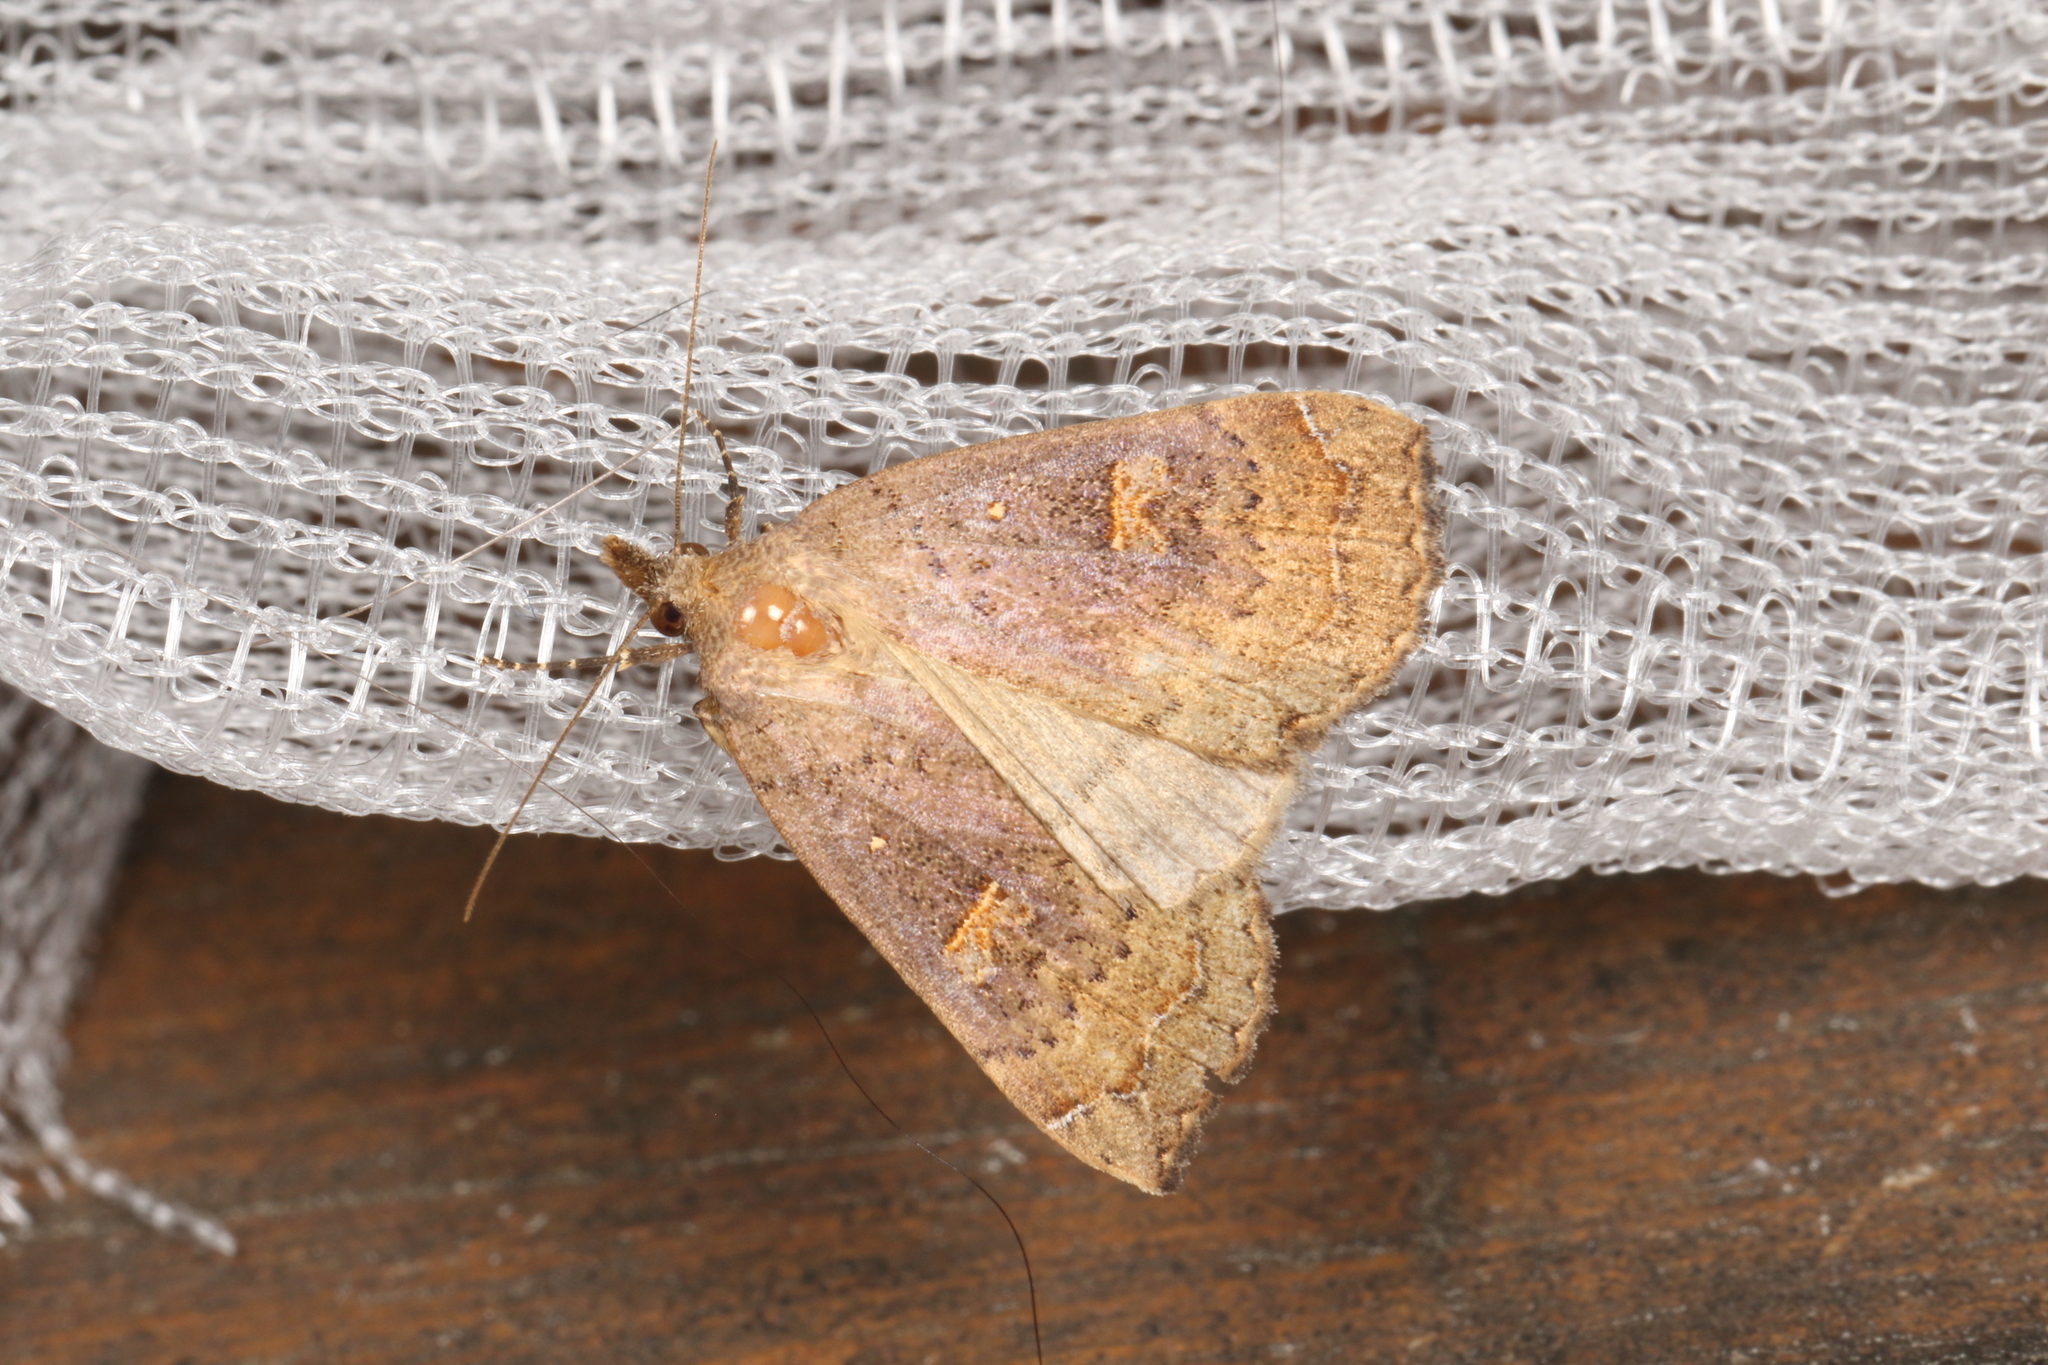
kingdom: Animalia
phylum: Arthropoda
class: Insecta
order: Lepidoptera
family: Erebidae
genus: Rhapsa
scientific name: Rhapsa scotosialis
